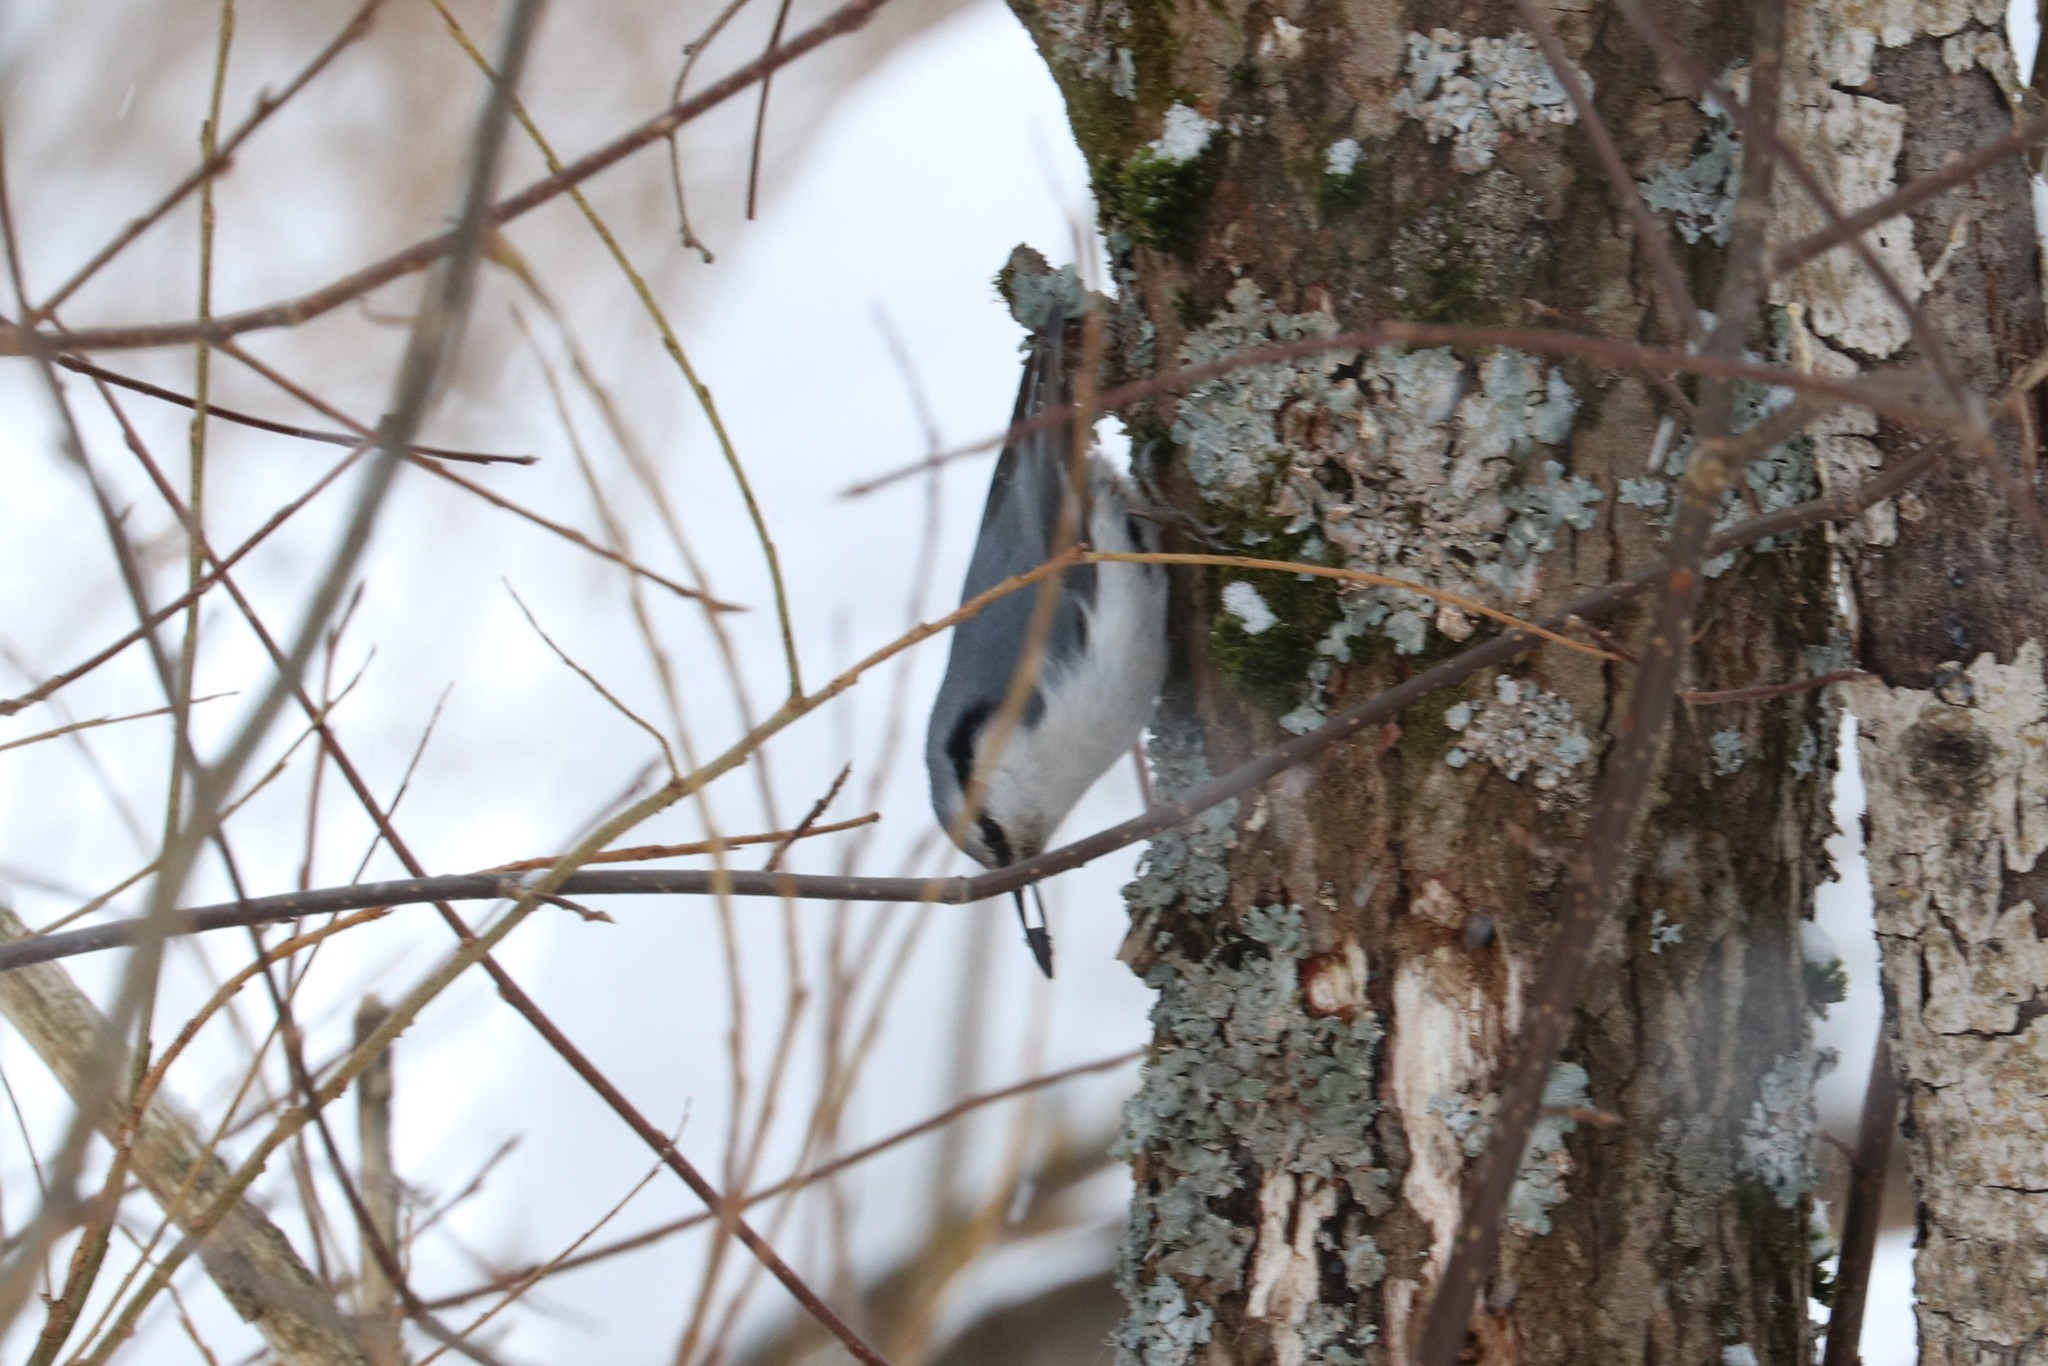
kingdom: Animalia
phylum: Chordata
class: Aves
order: Passeriformes
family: Sittidae
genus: Sitta
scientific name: Sitta europaea
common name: Eurasian nuthatch
